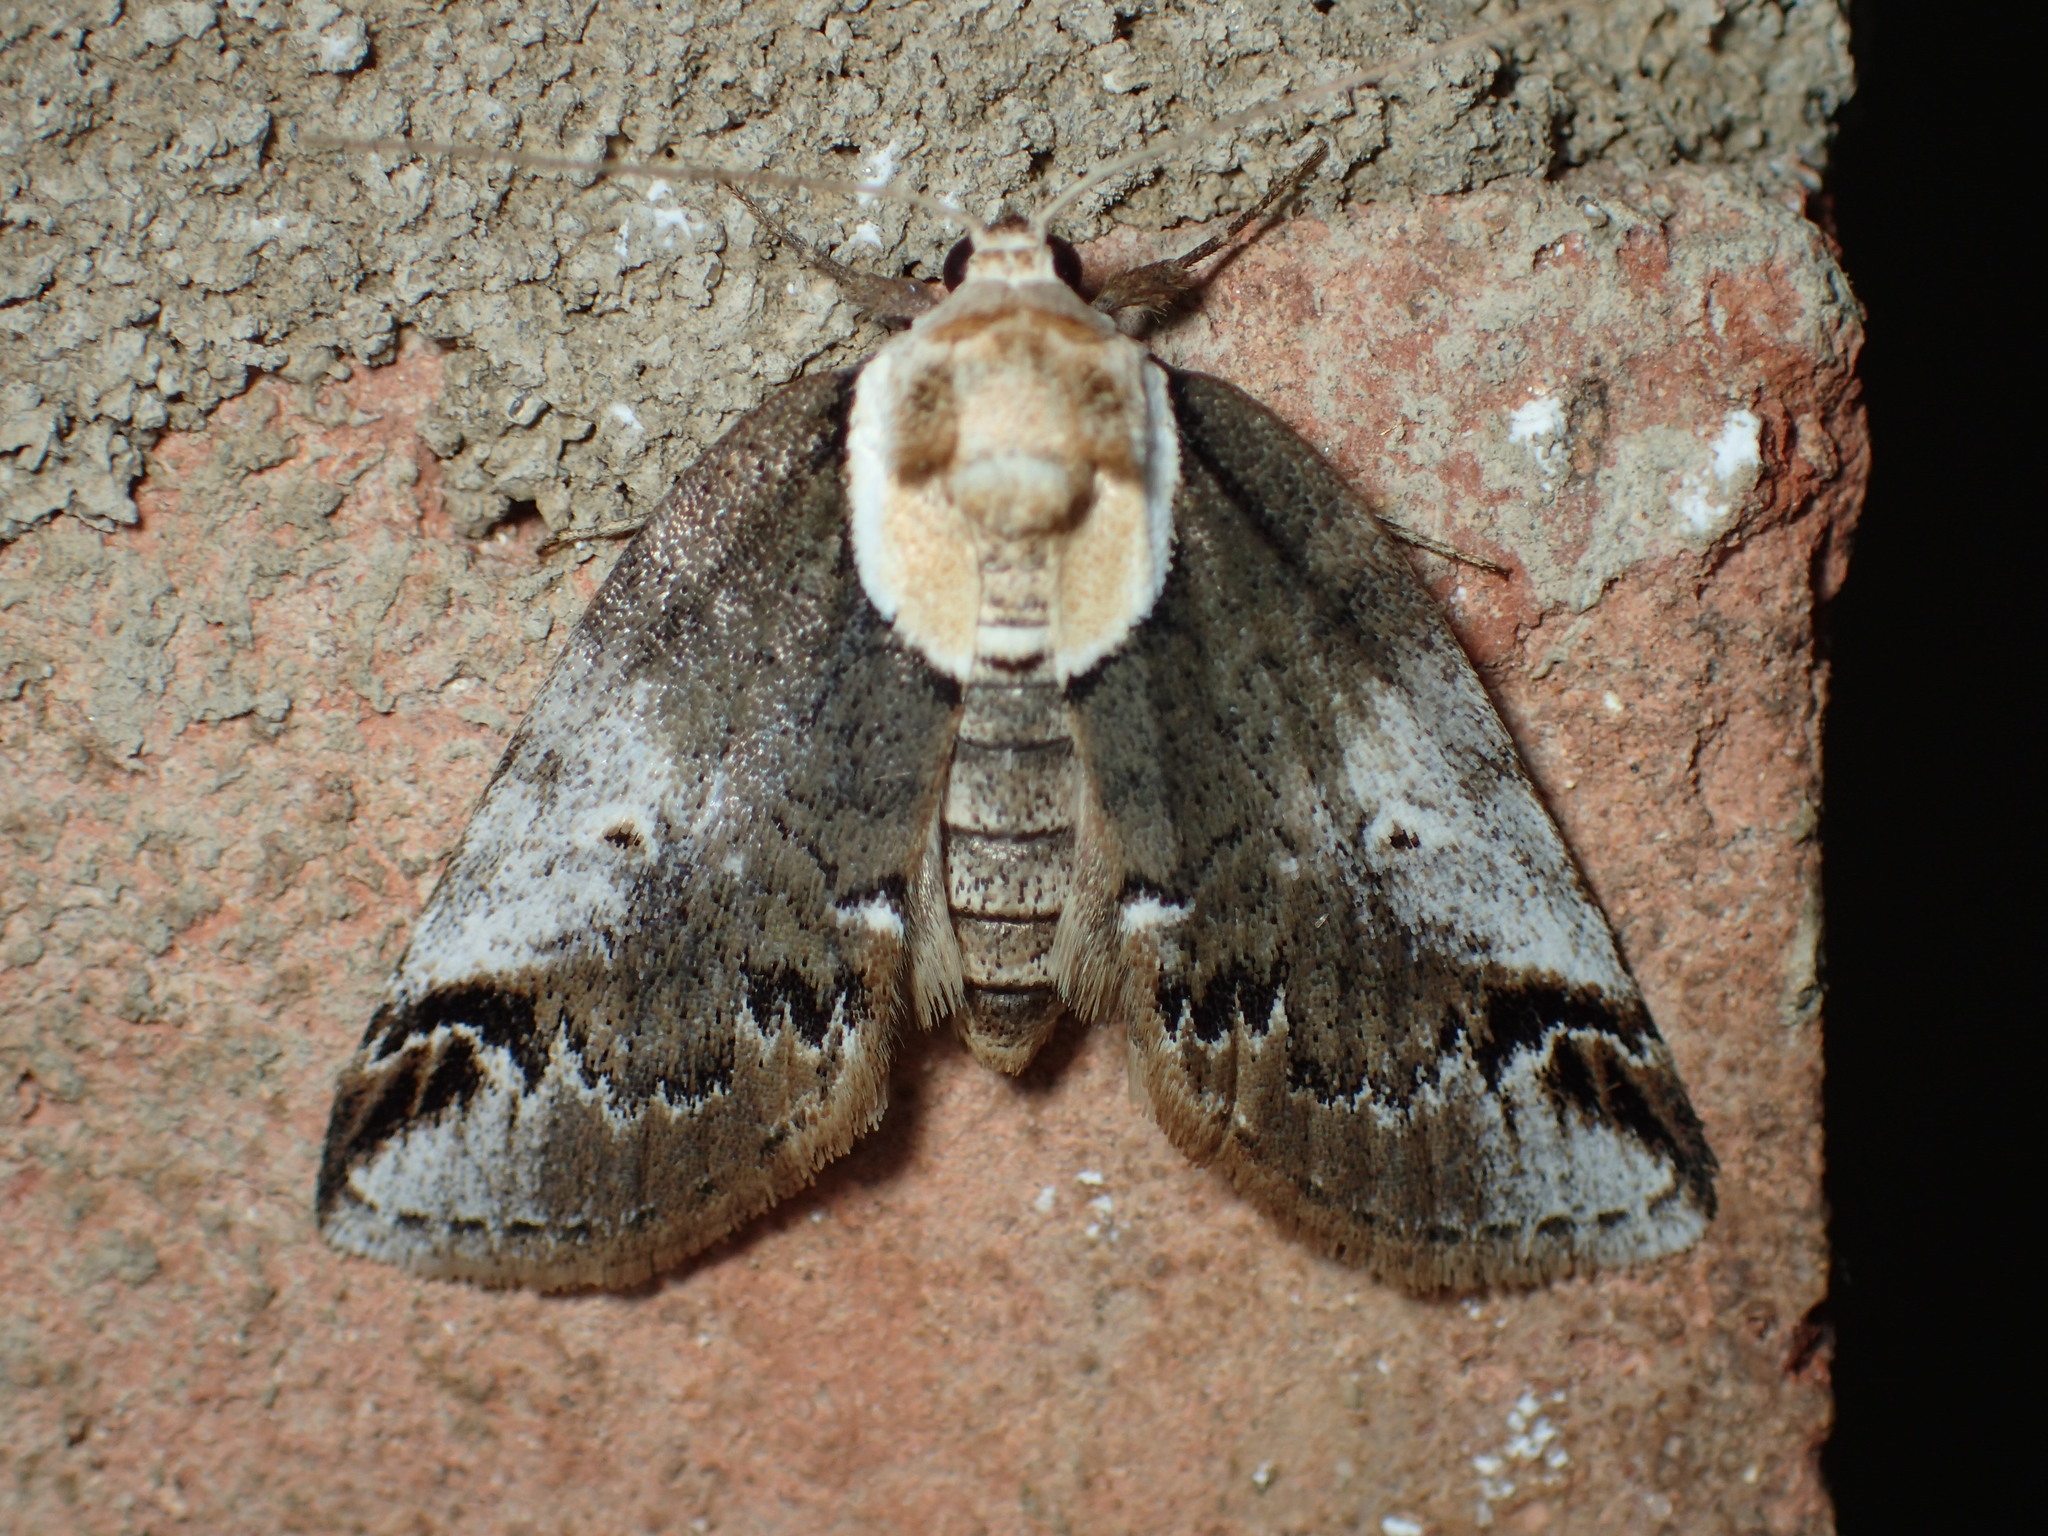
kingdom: Animalia
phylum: Arthropoda
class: Insecta
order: Lepidoptera
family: Nolidae
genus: Baileya
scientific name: Baileya ophthalmica
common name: Eyed baileya moth
